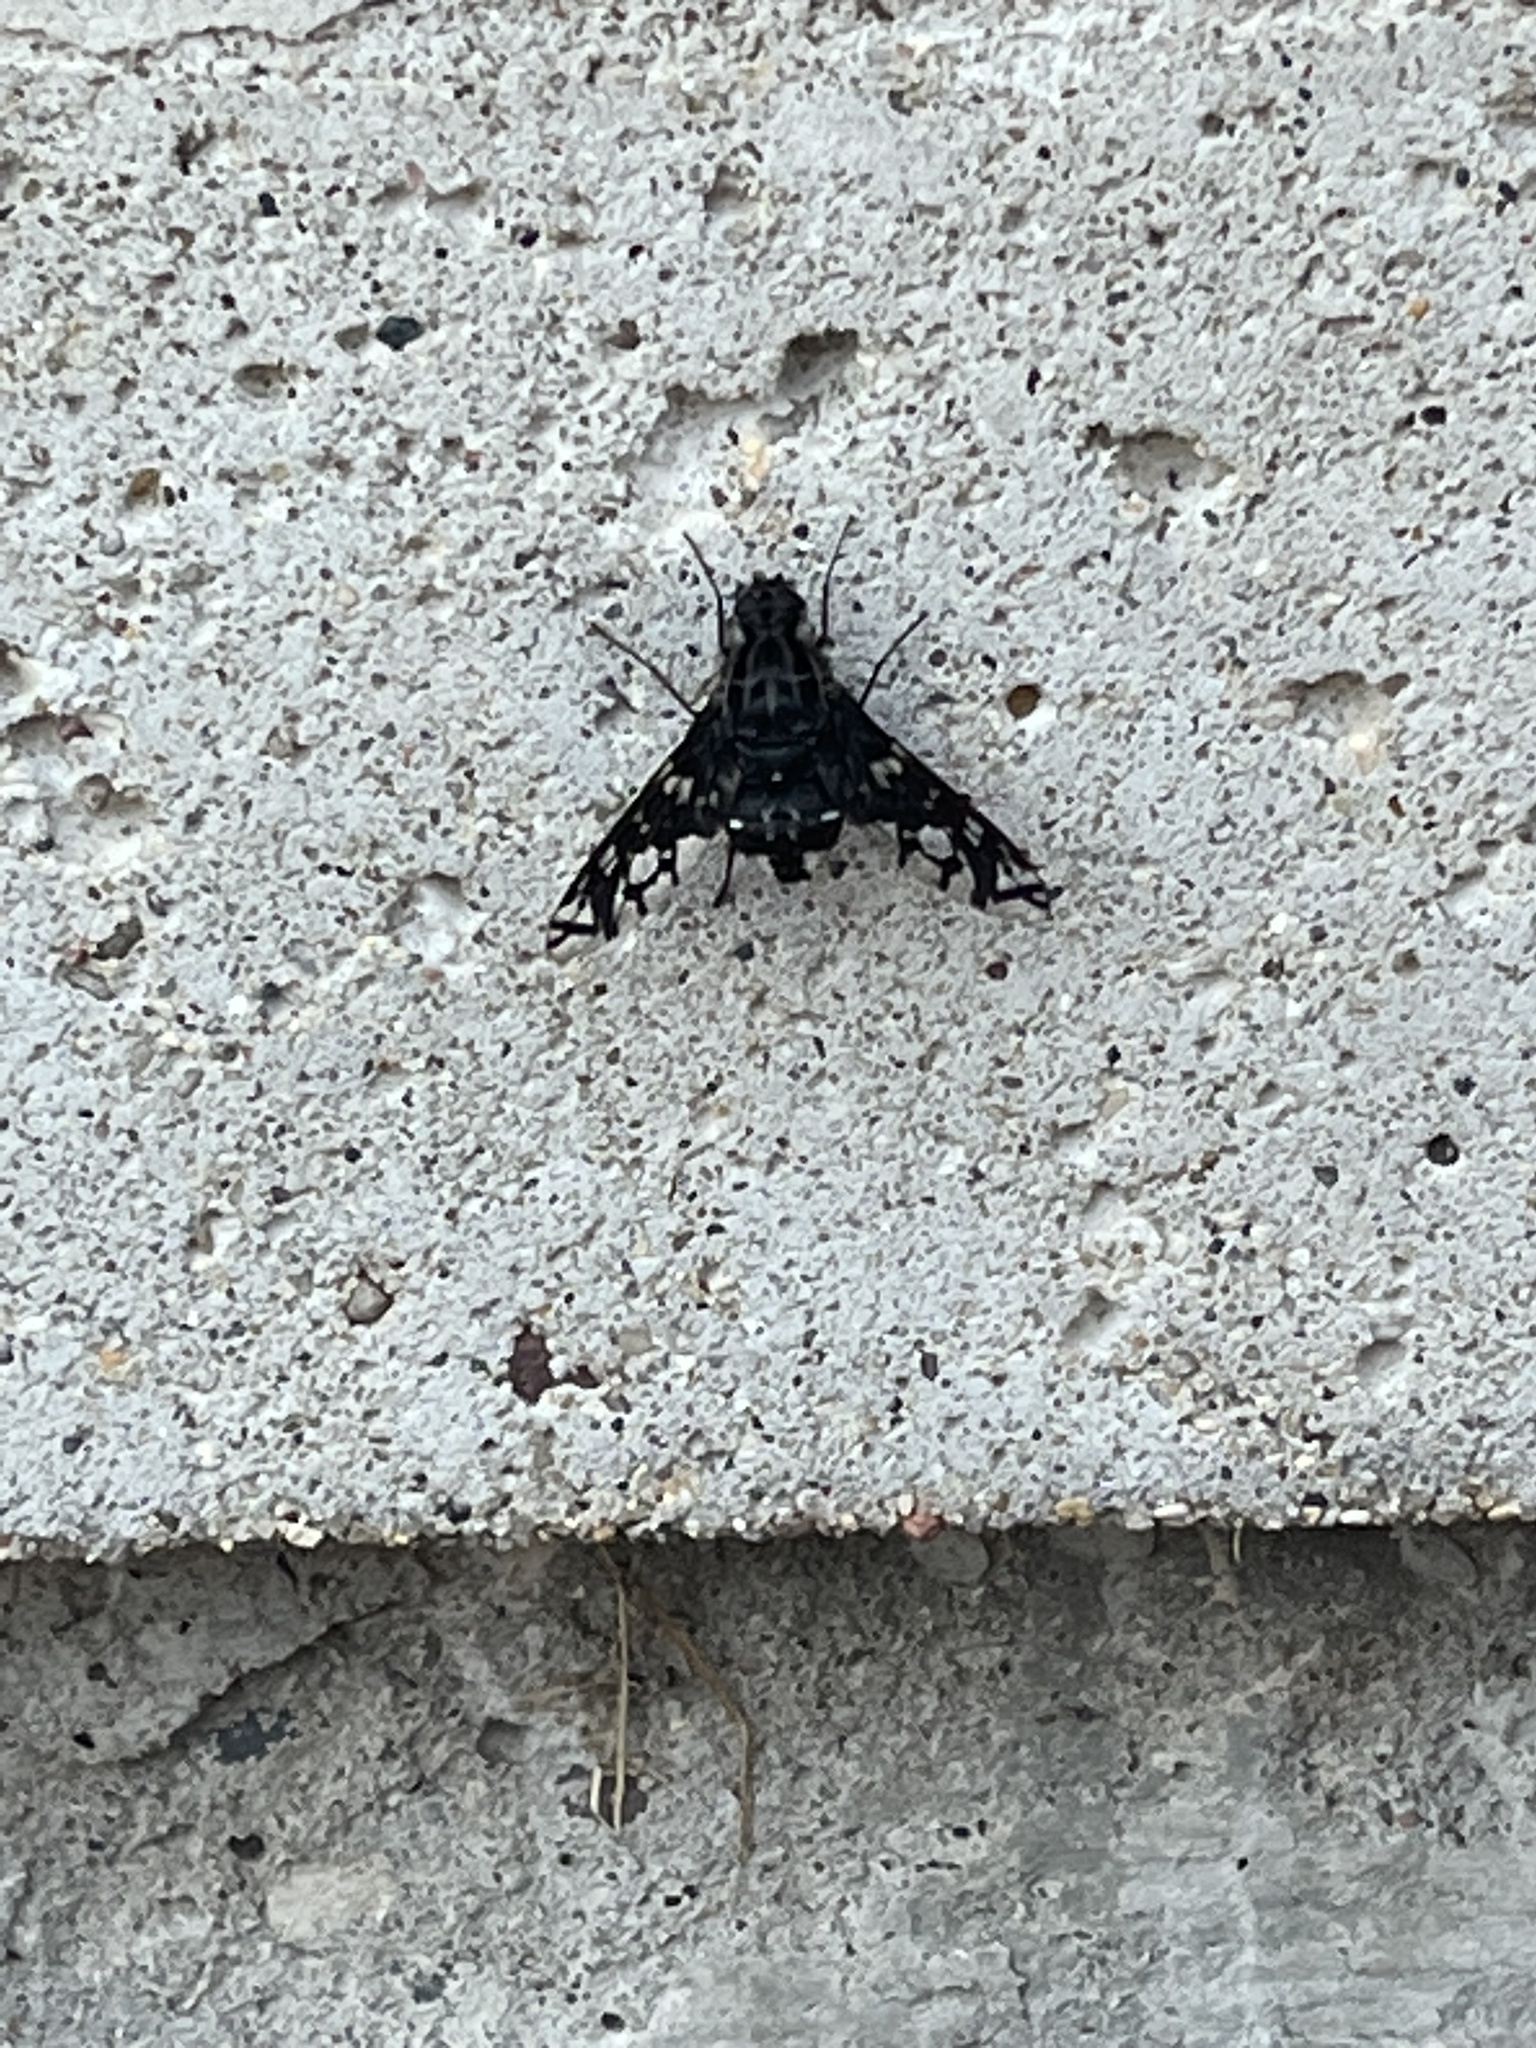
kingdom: Animalia
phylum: Arthropoda
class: Insecta
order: Diptera
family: Bombyliidae
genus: Xenox
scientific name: Xenox tigrinus
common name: Tiger bee fly
